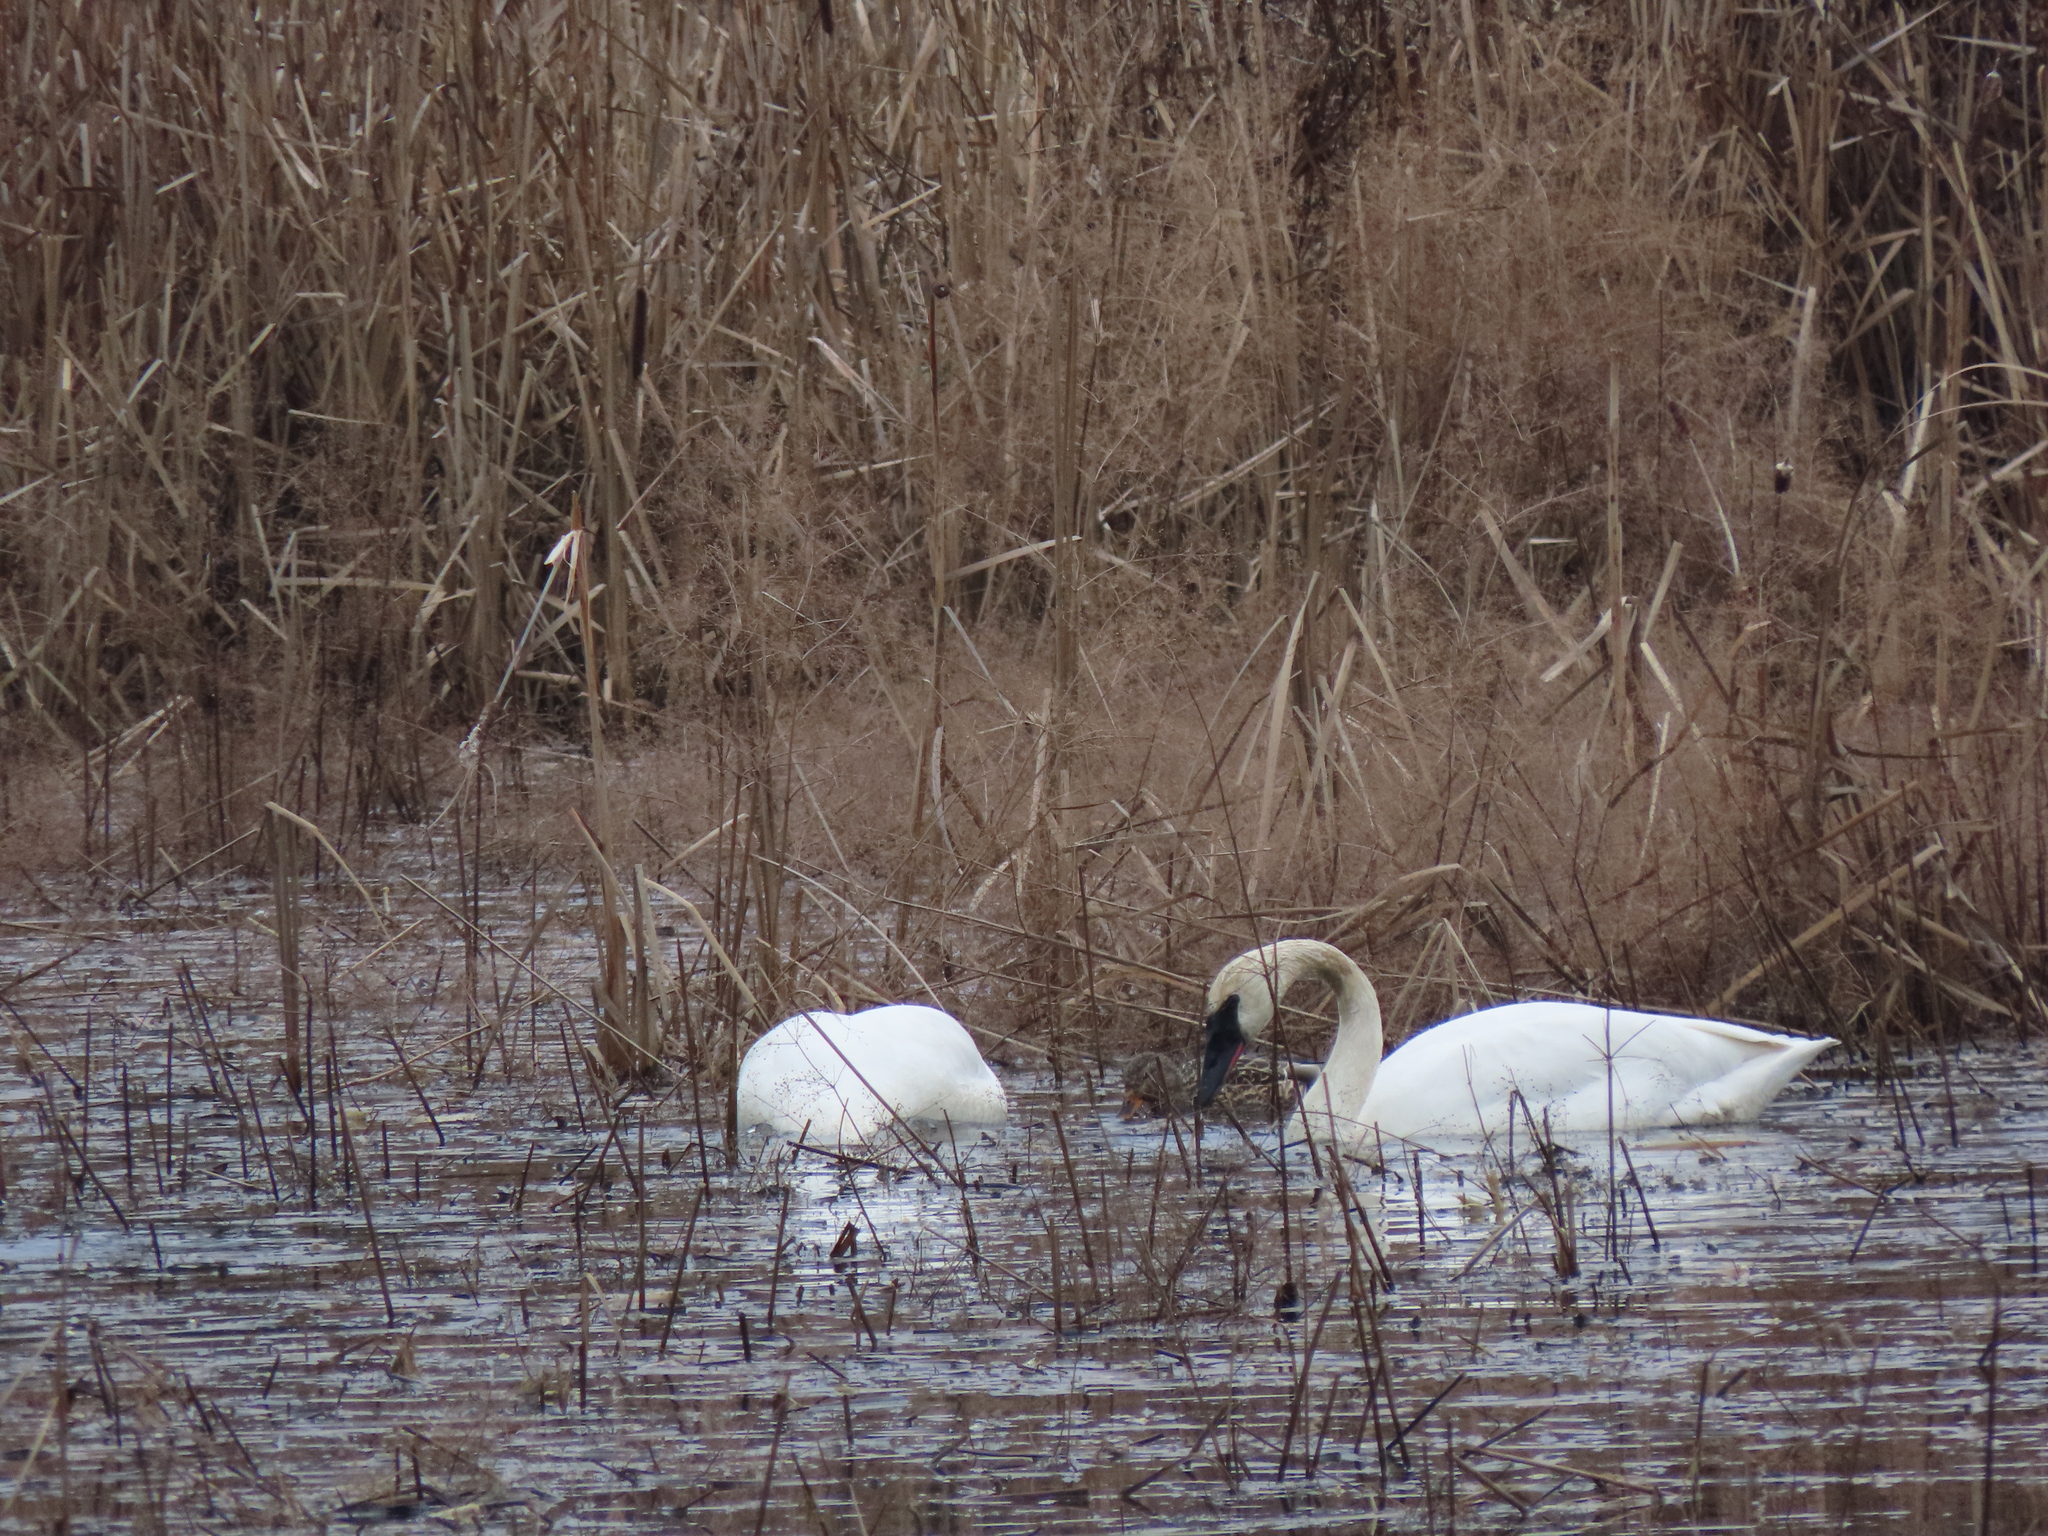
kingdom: Animalia
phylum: Chordata
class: Aves
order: Anseriformes
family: Anatidae
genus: Cygnus
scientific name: Cygnus buccinator
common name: Trumpeter swan
